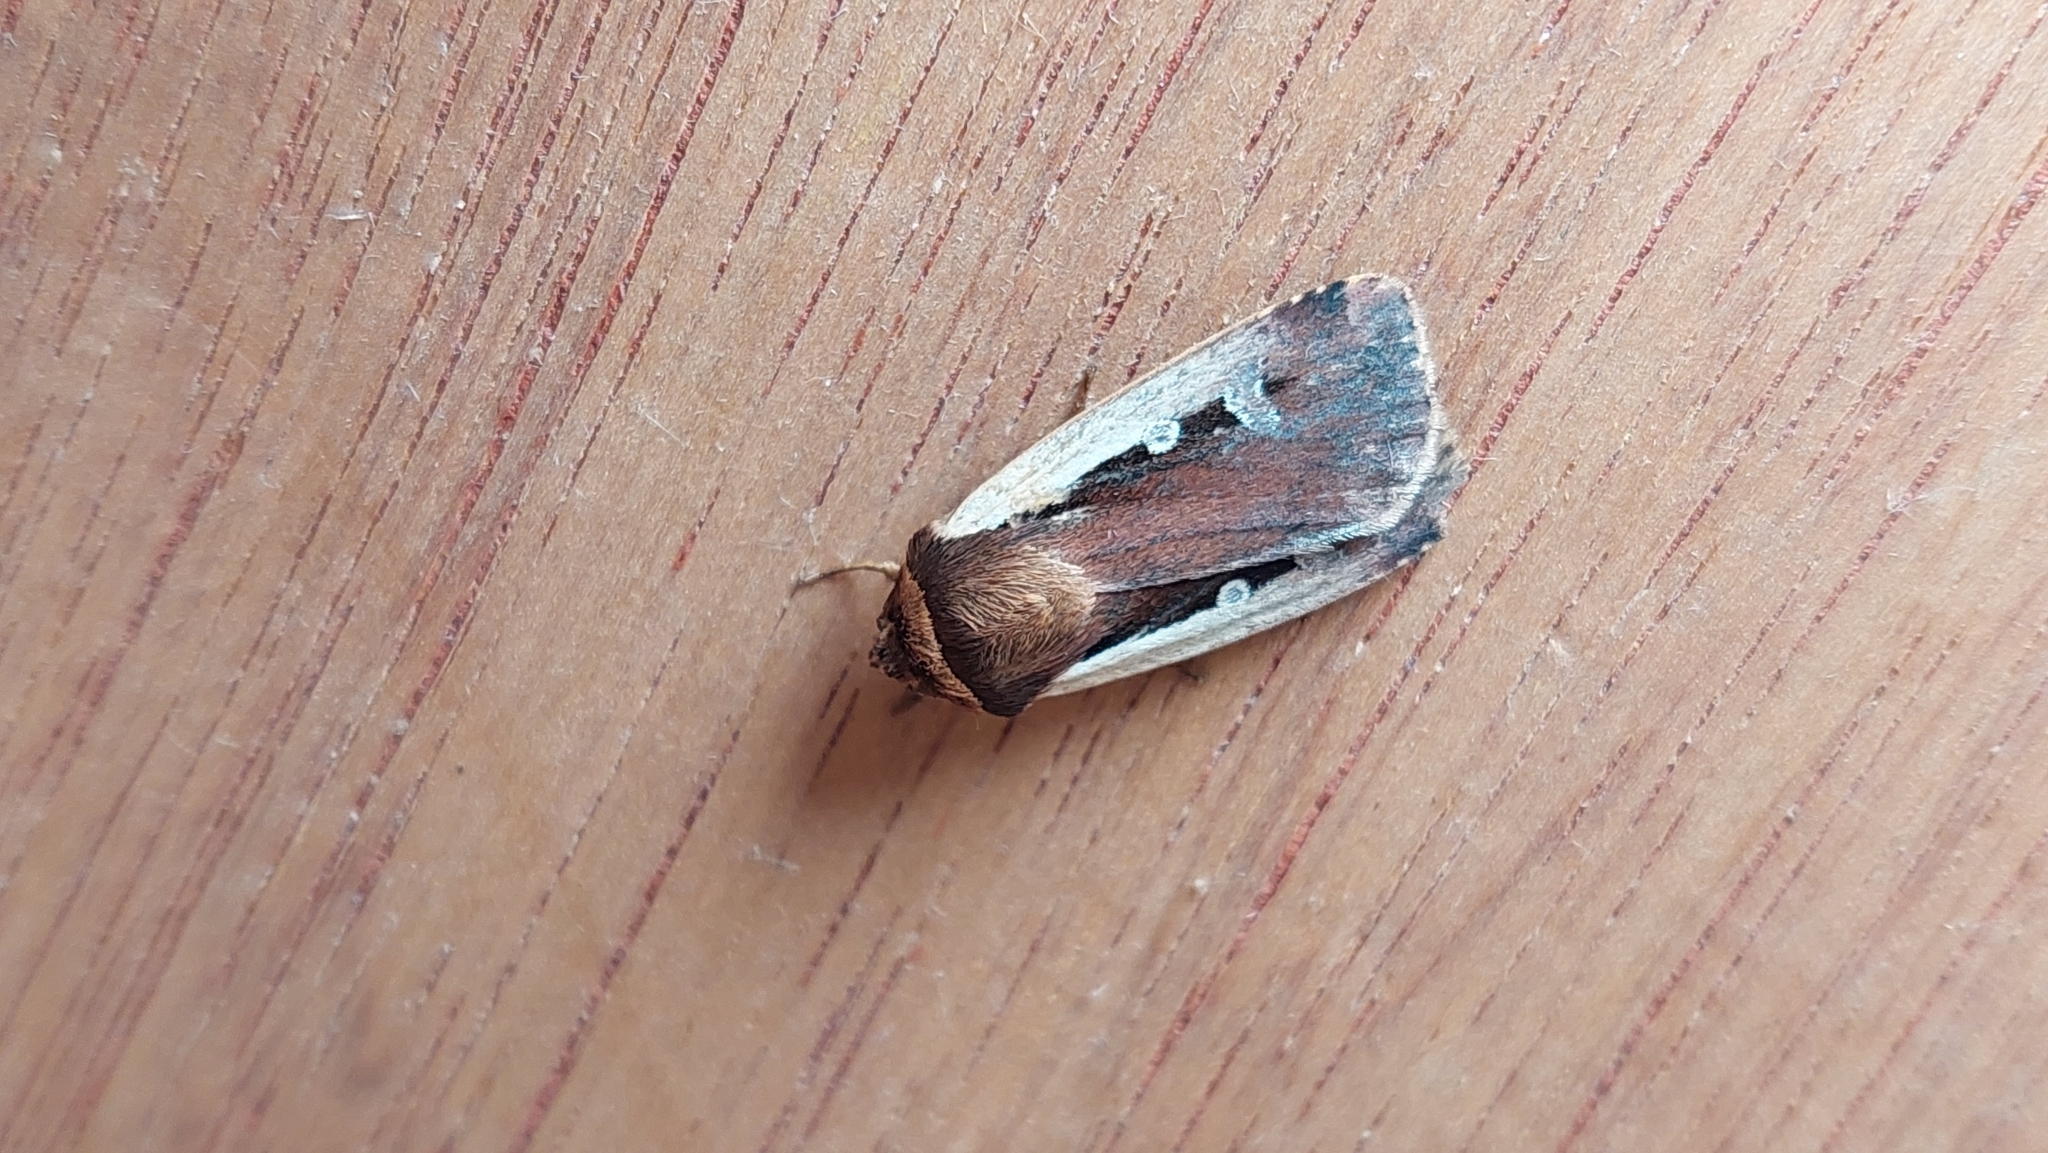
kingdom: Animalia
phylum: Arthropoda
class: Insecta
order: Lepidoptera
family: Noctuidae
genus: Ochropleura
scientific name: Ochropleura plecta
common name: Flame shoulder
